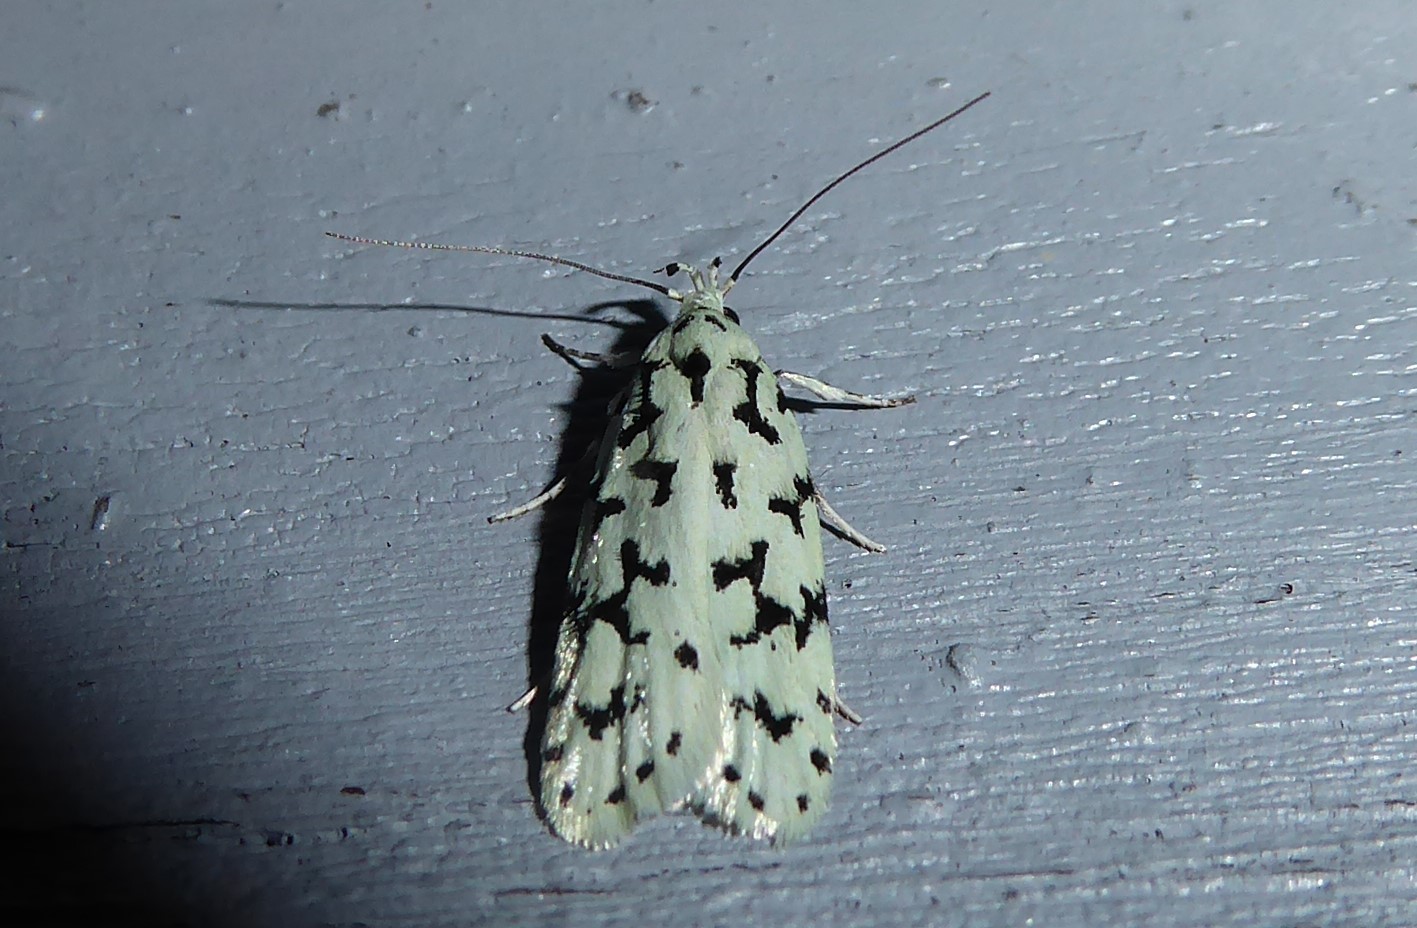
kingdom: Animalia
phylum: Arthropoda
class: Insecta
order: Lepidoptera
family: Oecophoridae
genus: Izatha
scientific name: Izatha huttoni
